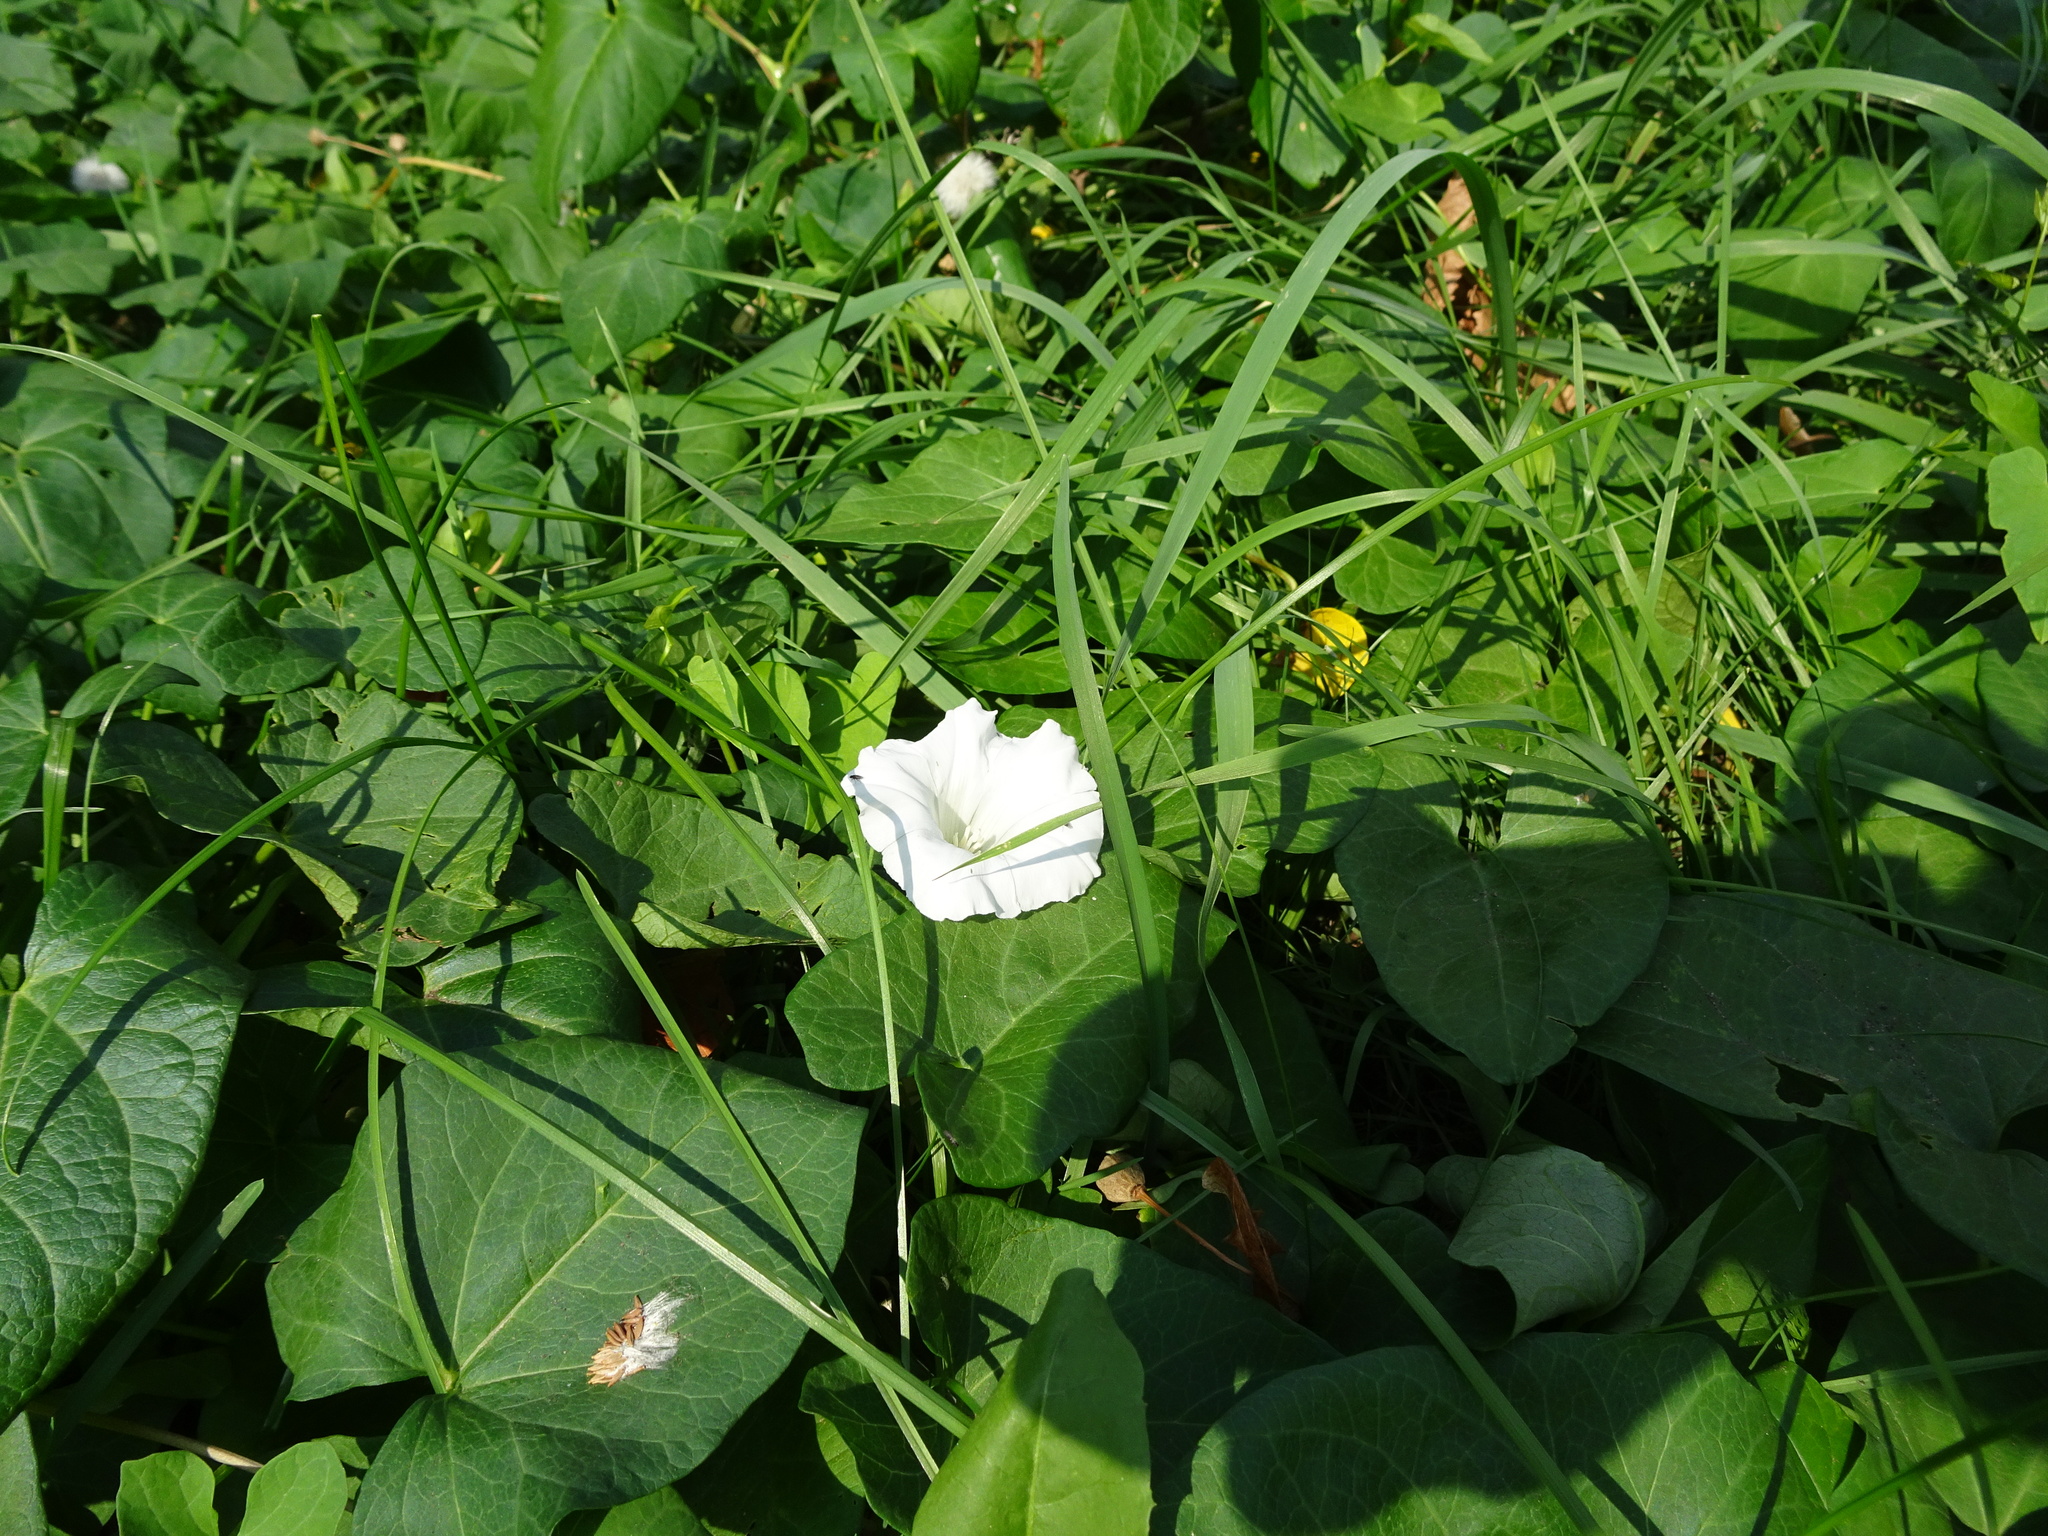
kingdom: Plantae
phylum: Tracheophyta
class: Magnoliopsida
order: Solanales
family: Convolvulaceae
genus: Calystegia
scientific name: Calystegia sepium
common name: Hedge bindweed
